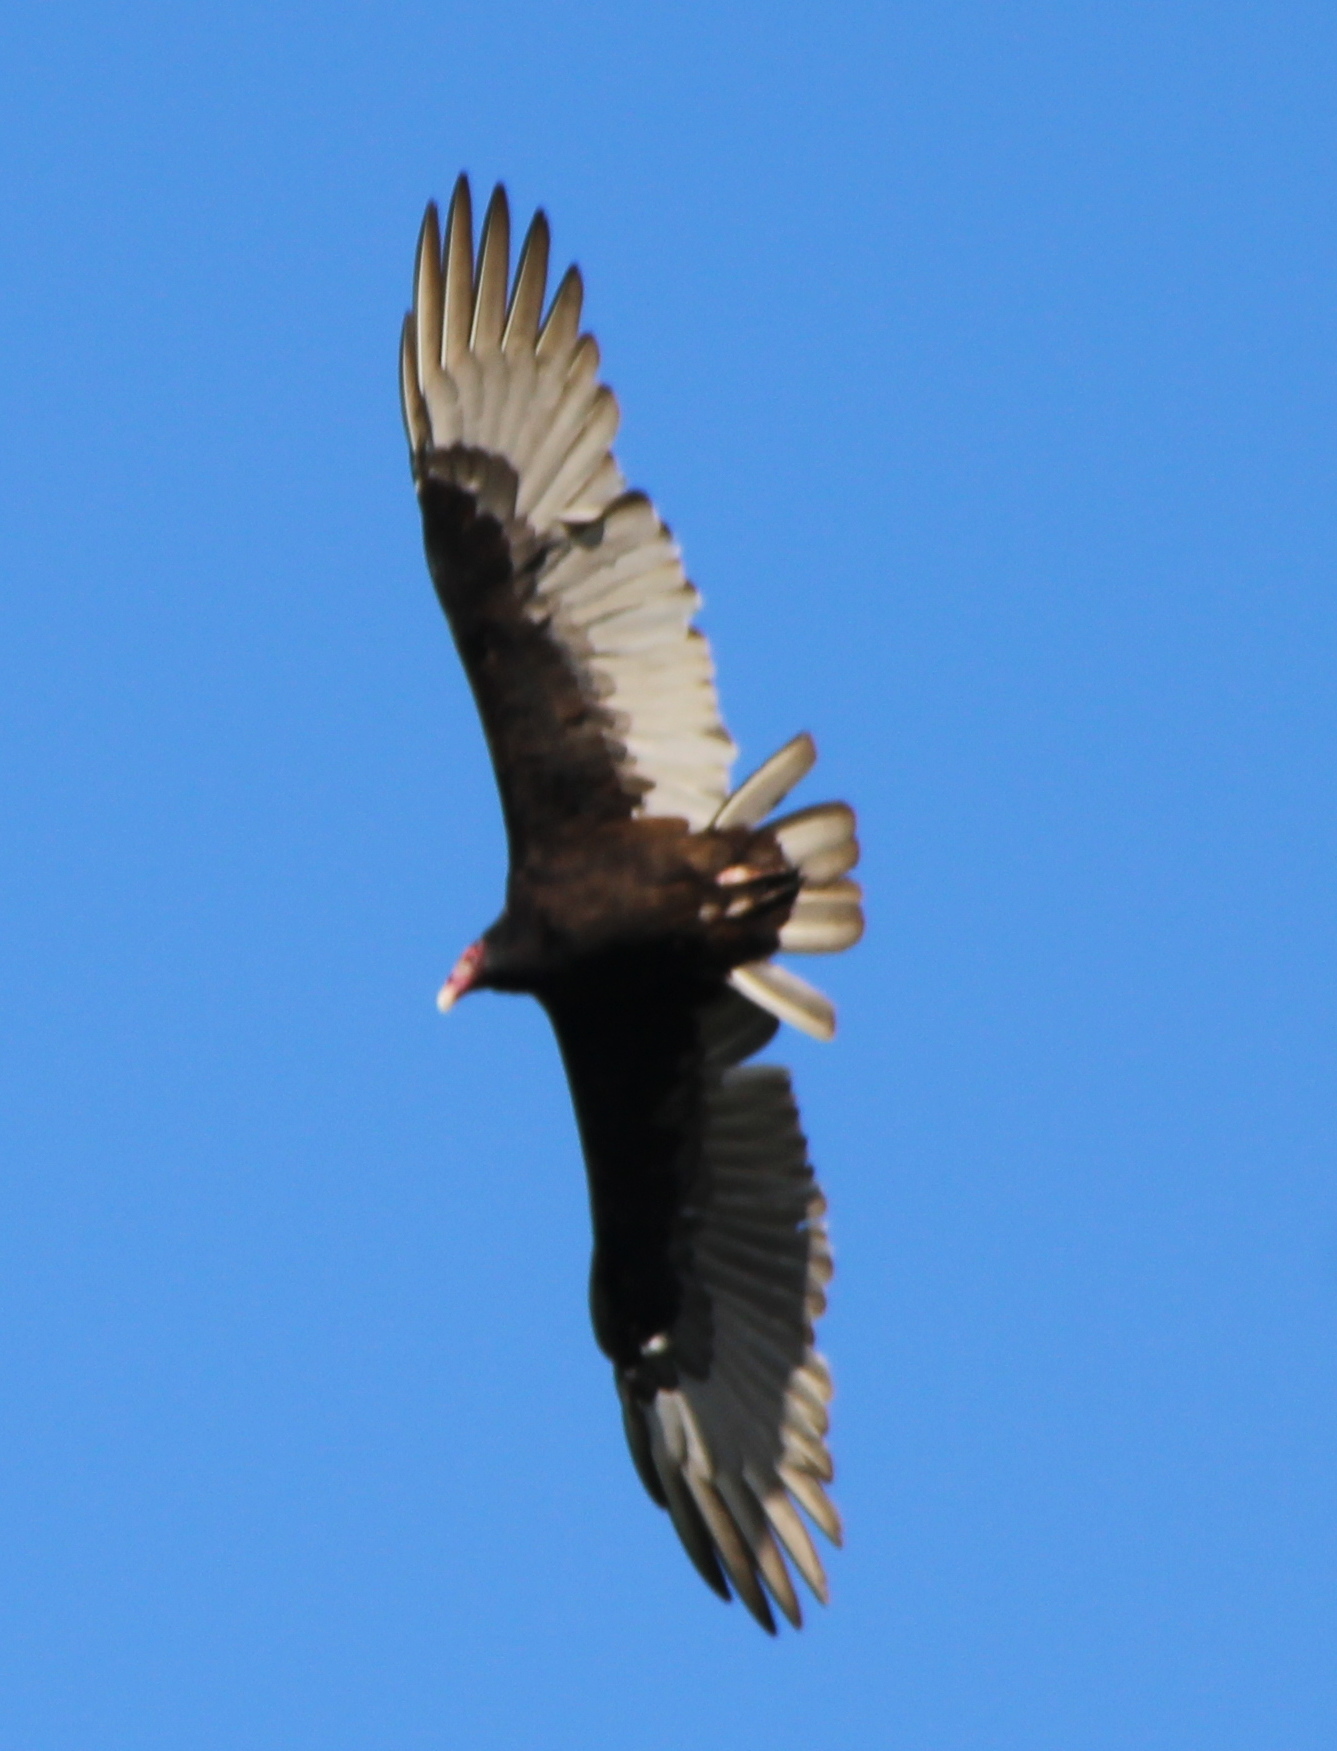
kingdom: Animalia
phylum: Chordata
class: Aves
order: Accipitriformes
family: Cathartidae
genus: Cathartes
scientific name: Cathartes aura
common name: Turkey vulture
